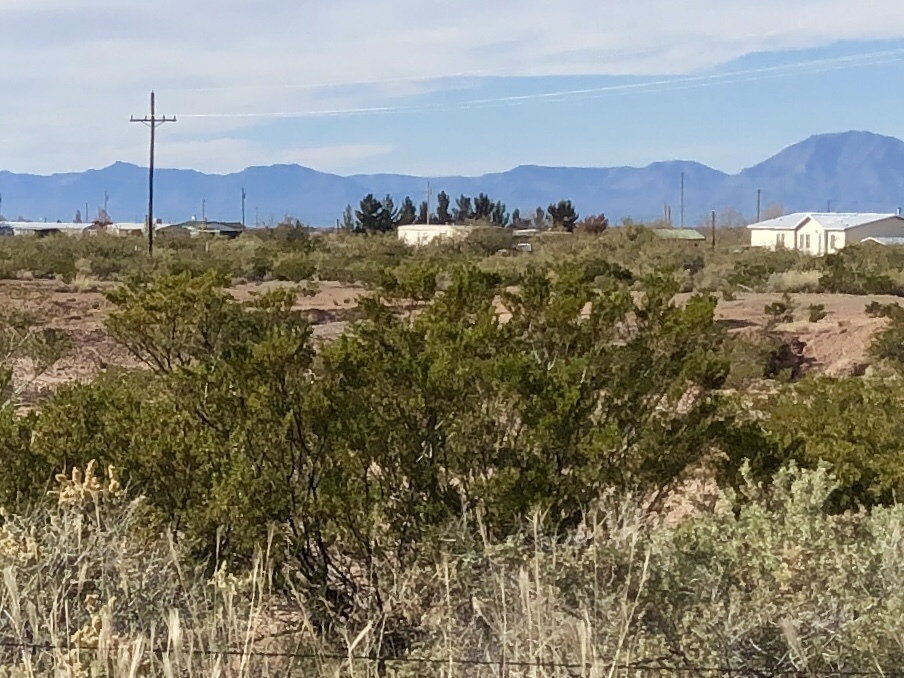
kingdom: Plantae
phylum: Tracheophyta
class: Magnoliopsida
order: Zygophyllales
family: Zygophyllaceae
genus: Larrea
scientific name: Larrea tridentata
